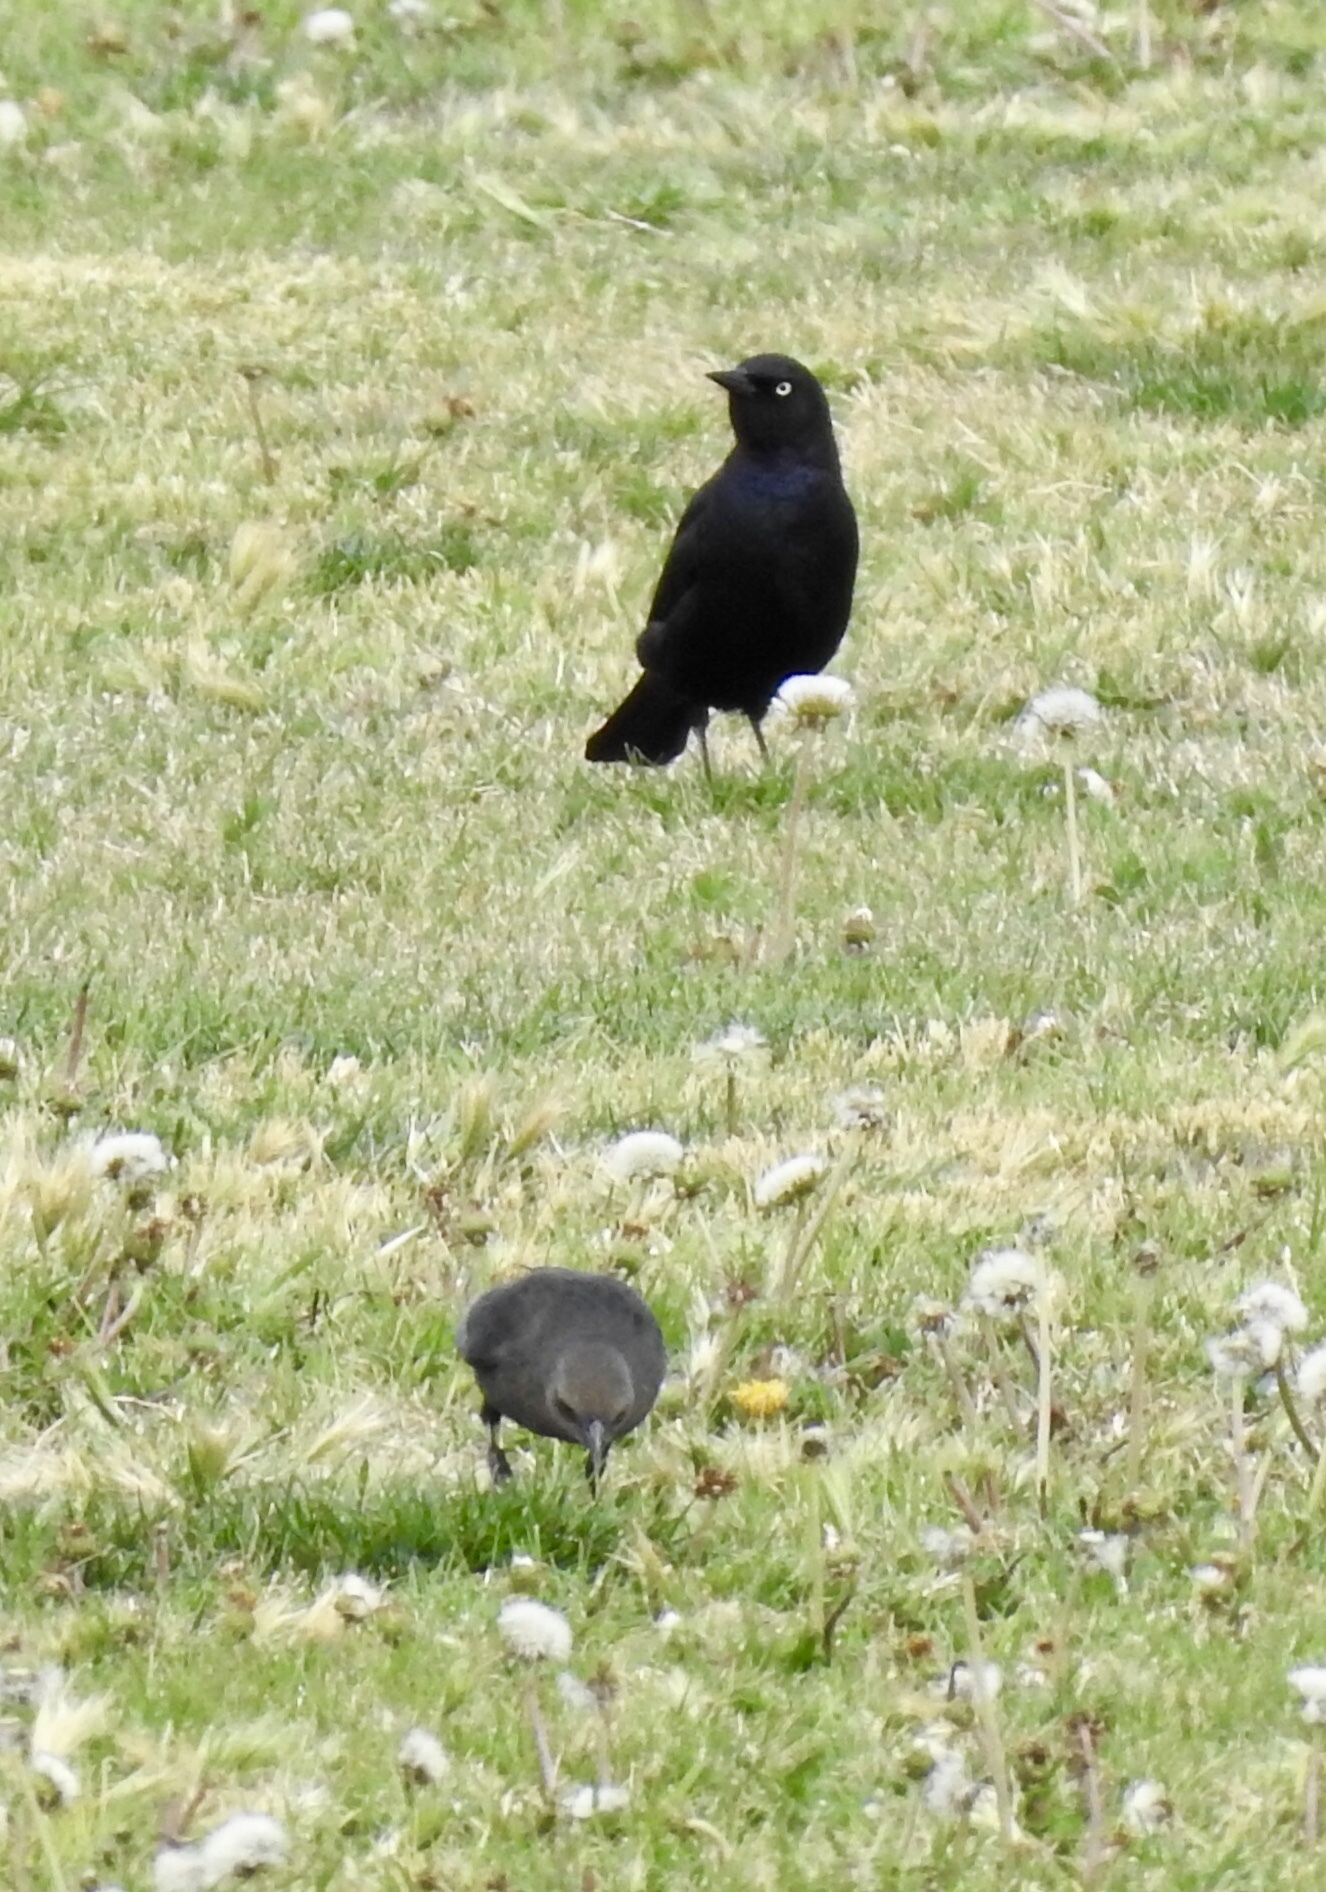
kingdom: Animalia
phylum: Chordata
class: Aves
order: Passeriformes
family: Icteridae
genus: Euphagus
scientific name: Euphagus cyanocephalus
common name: Brewer's blackbird
